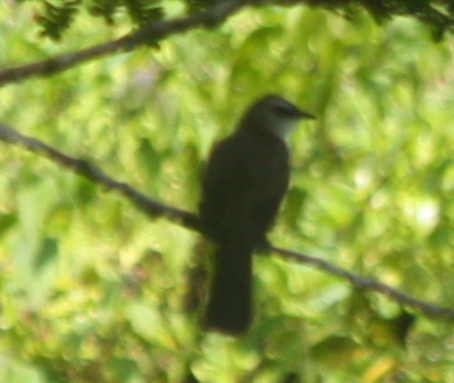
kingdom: Animalia
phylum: Chordata
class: Aves
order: Passeriformes
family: Pycnonotidae
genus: Pycnonotus
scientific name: Pycnonotus goiavier
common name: Yellow-vented bulbul
